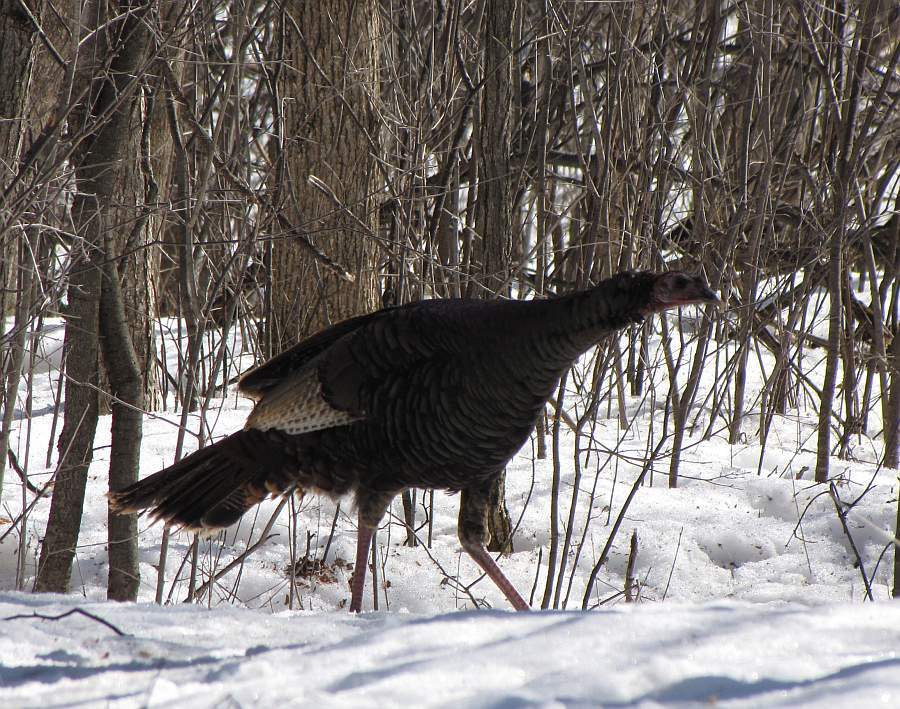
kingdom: Animalia
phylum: Chordata
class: Aves
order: Galliformes
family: Phasianidae
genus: Meleagris
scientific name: Meleagris gallopavo
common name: Wild turkey
